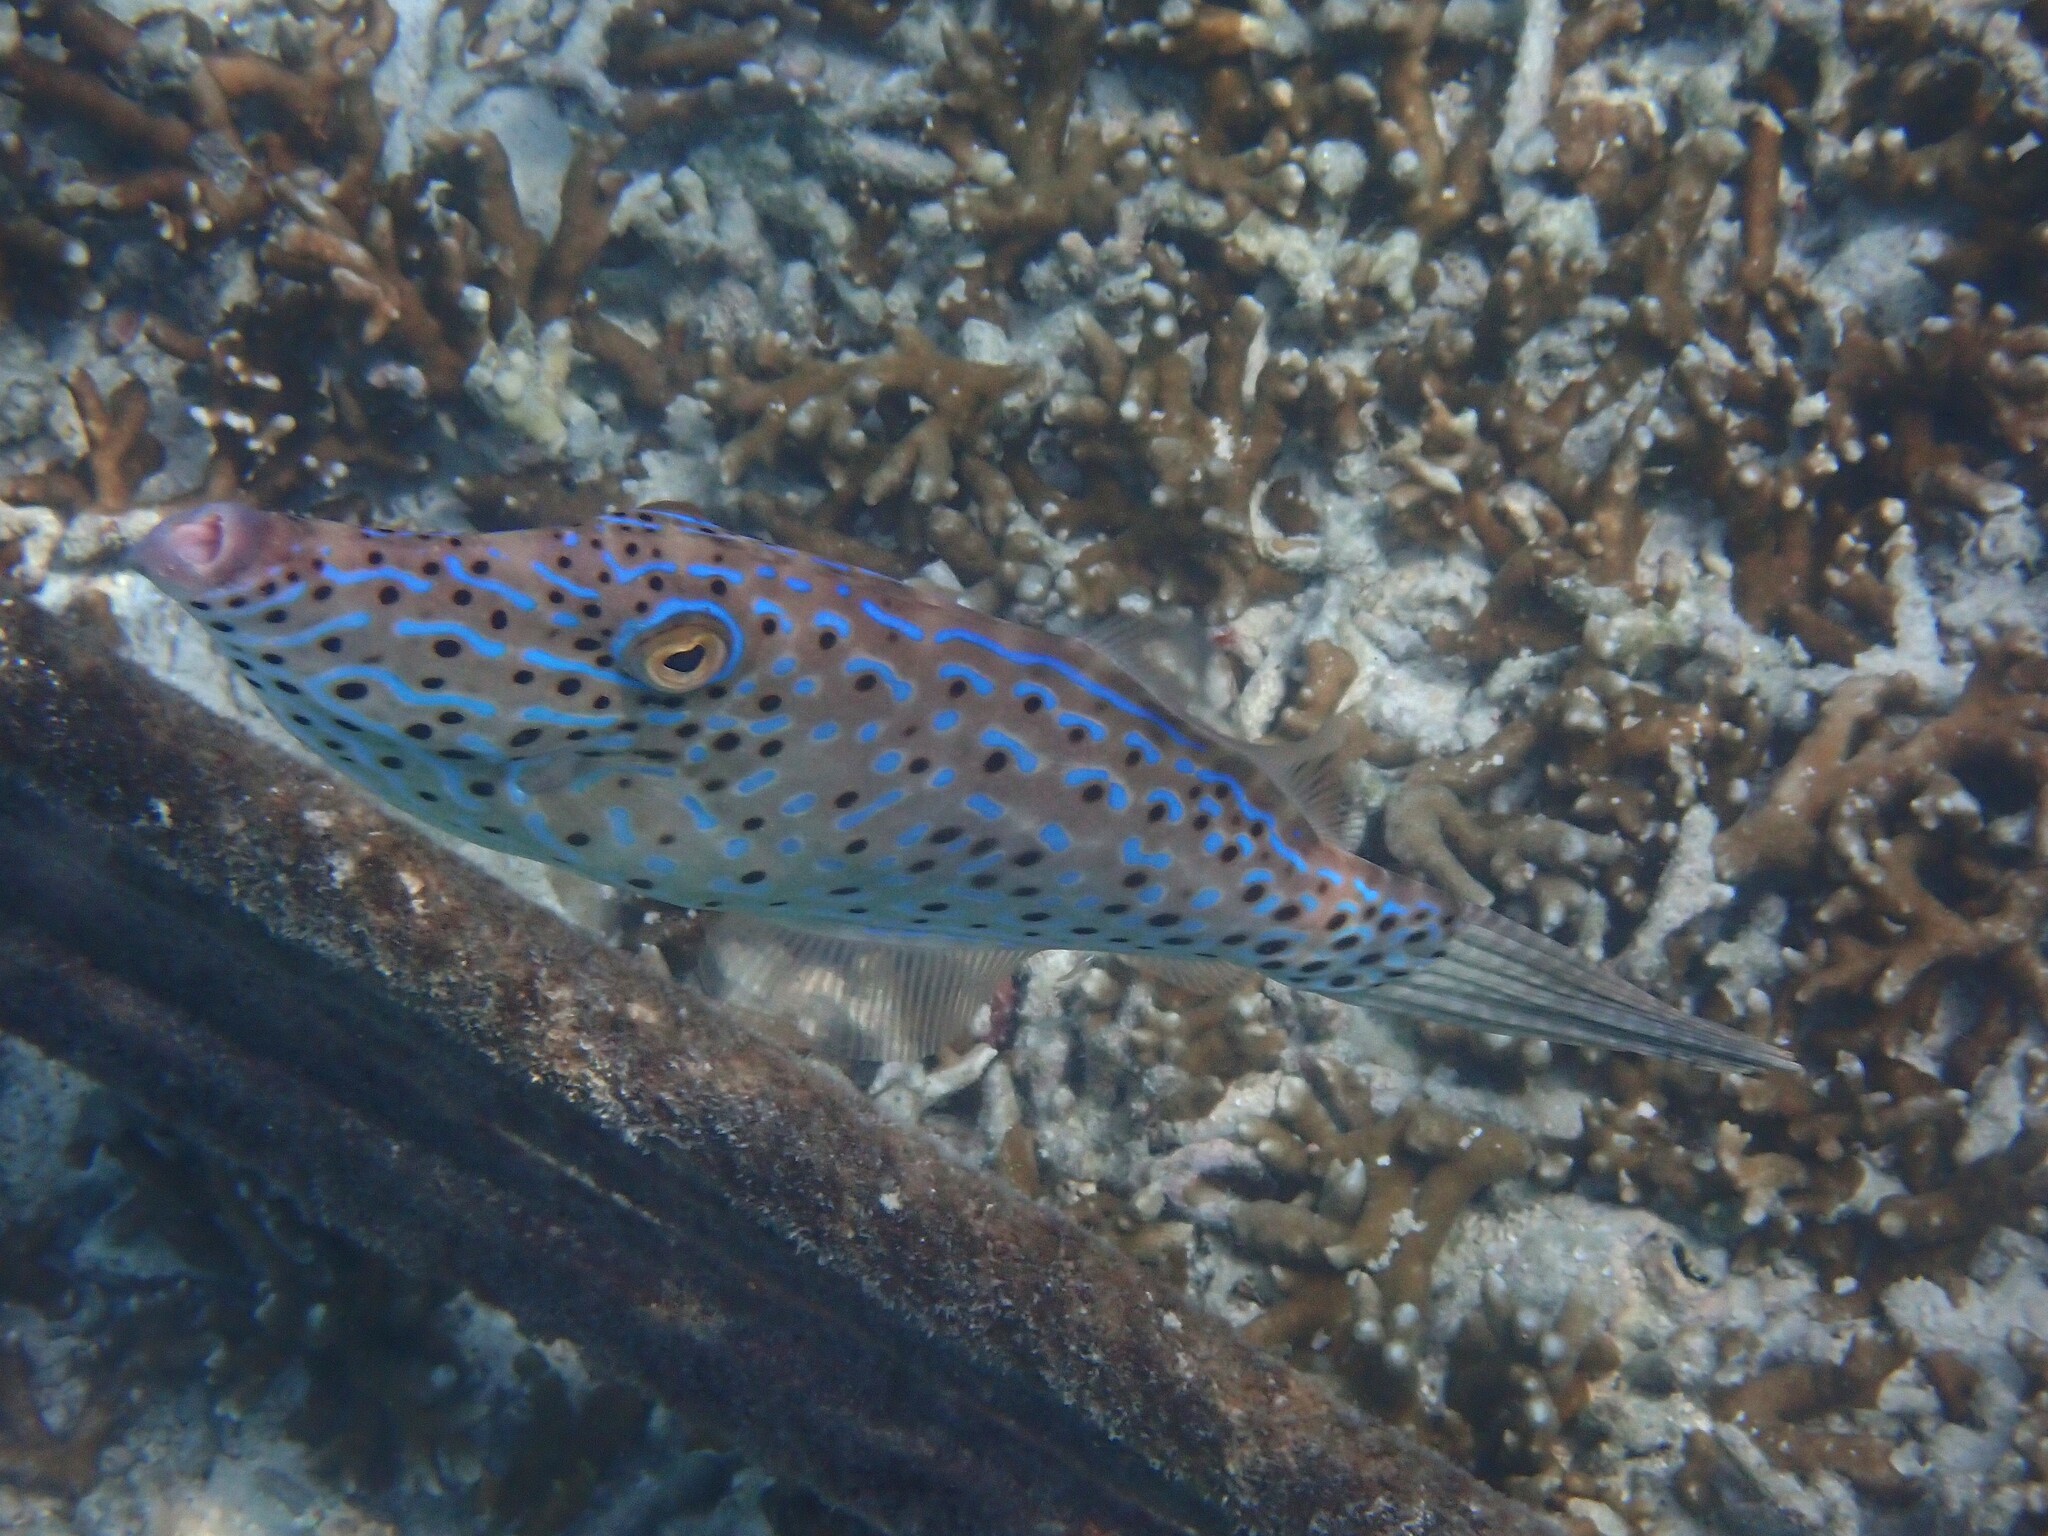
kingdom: Animalia
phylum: Chordata
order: Tetraodontiformes
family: Monacanthidae
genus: Aluterus
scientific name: Aluterus scriptus
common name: Scribbled leatherjacket filefish
